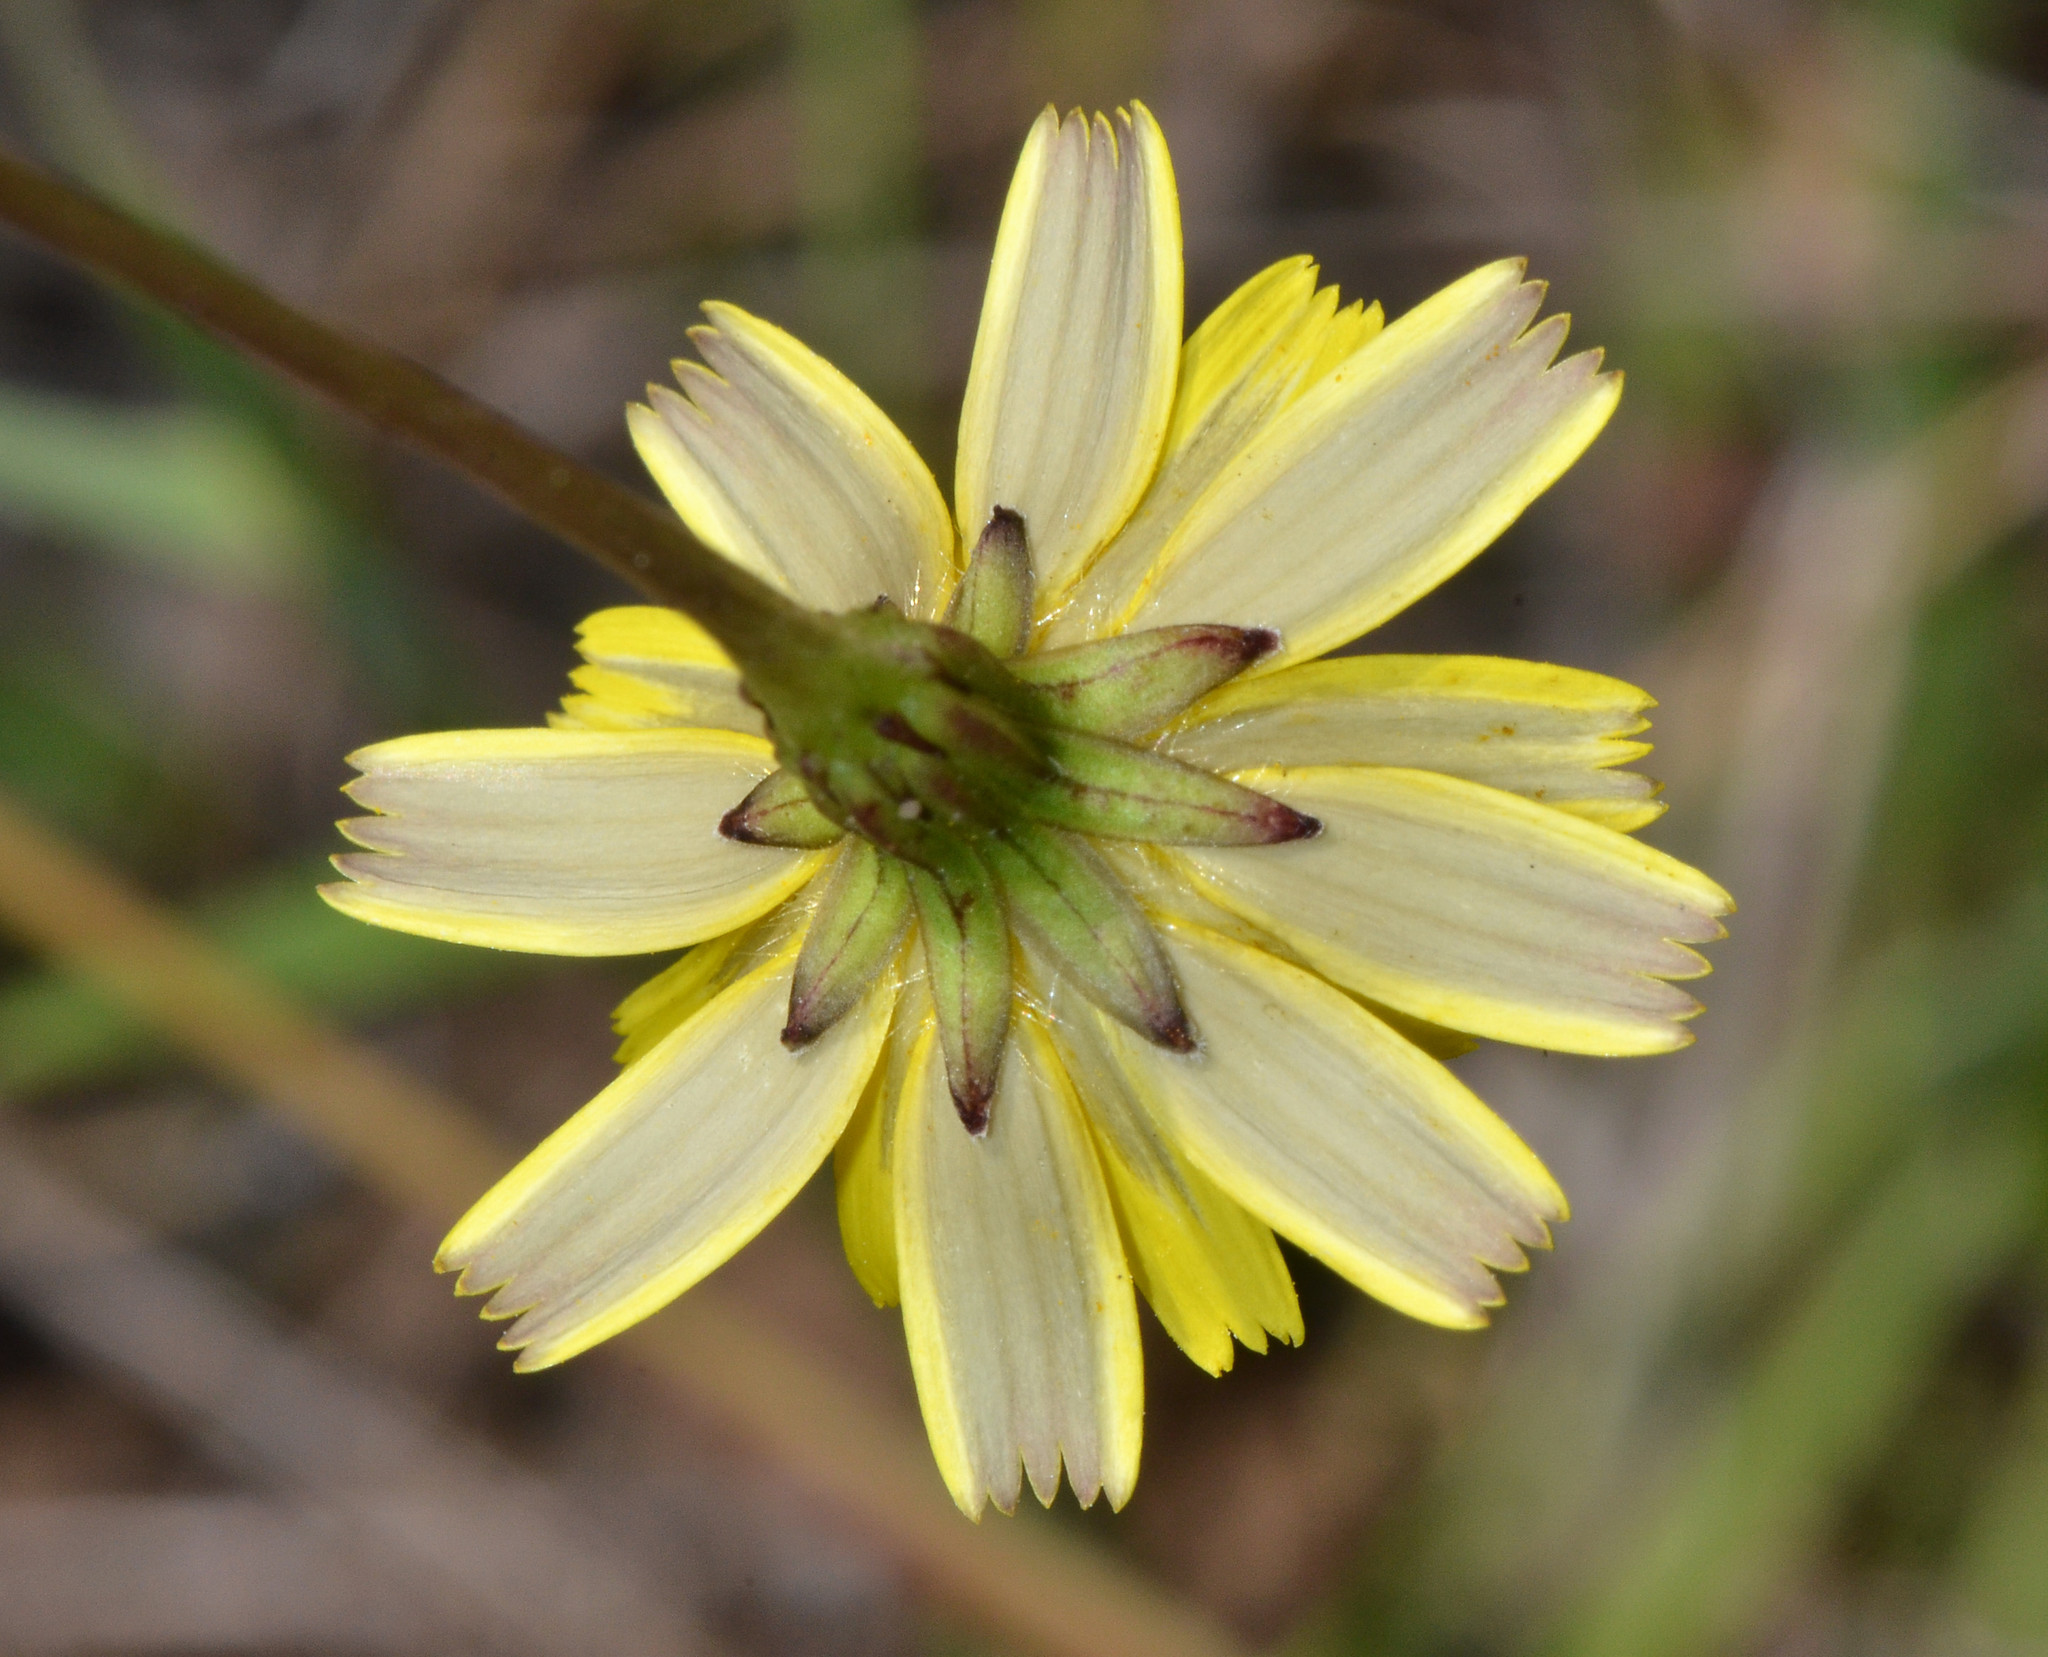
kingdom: Plantae
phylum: Tracheophyta
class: Magnoliopsida
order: Asterales
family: Asteraceae
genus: Hypochaeris
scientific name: Hypochaeris radicata
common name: Flatweed
